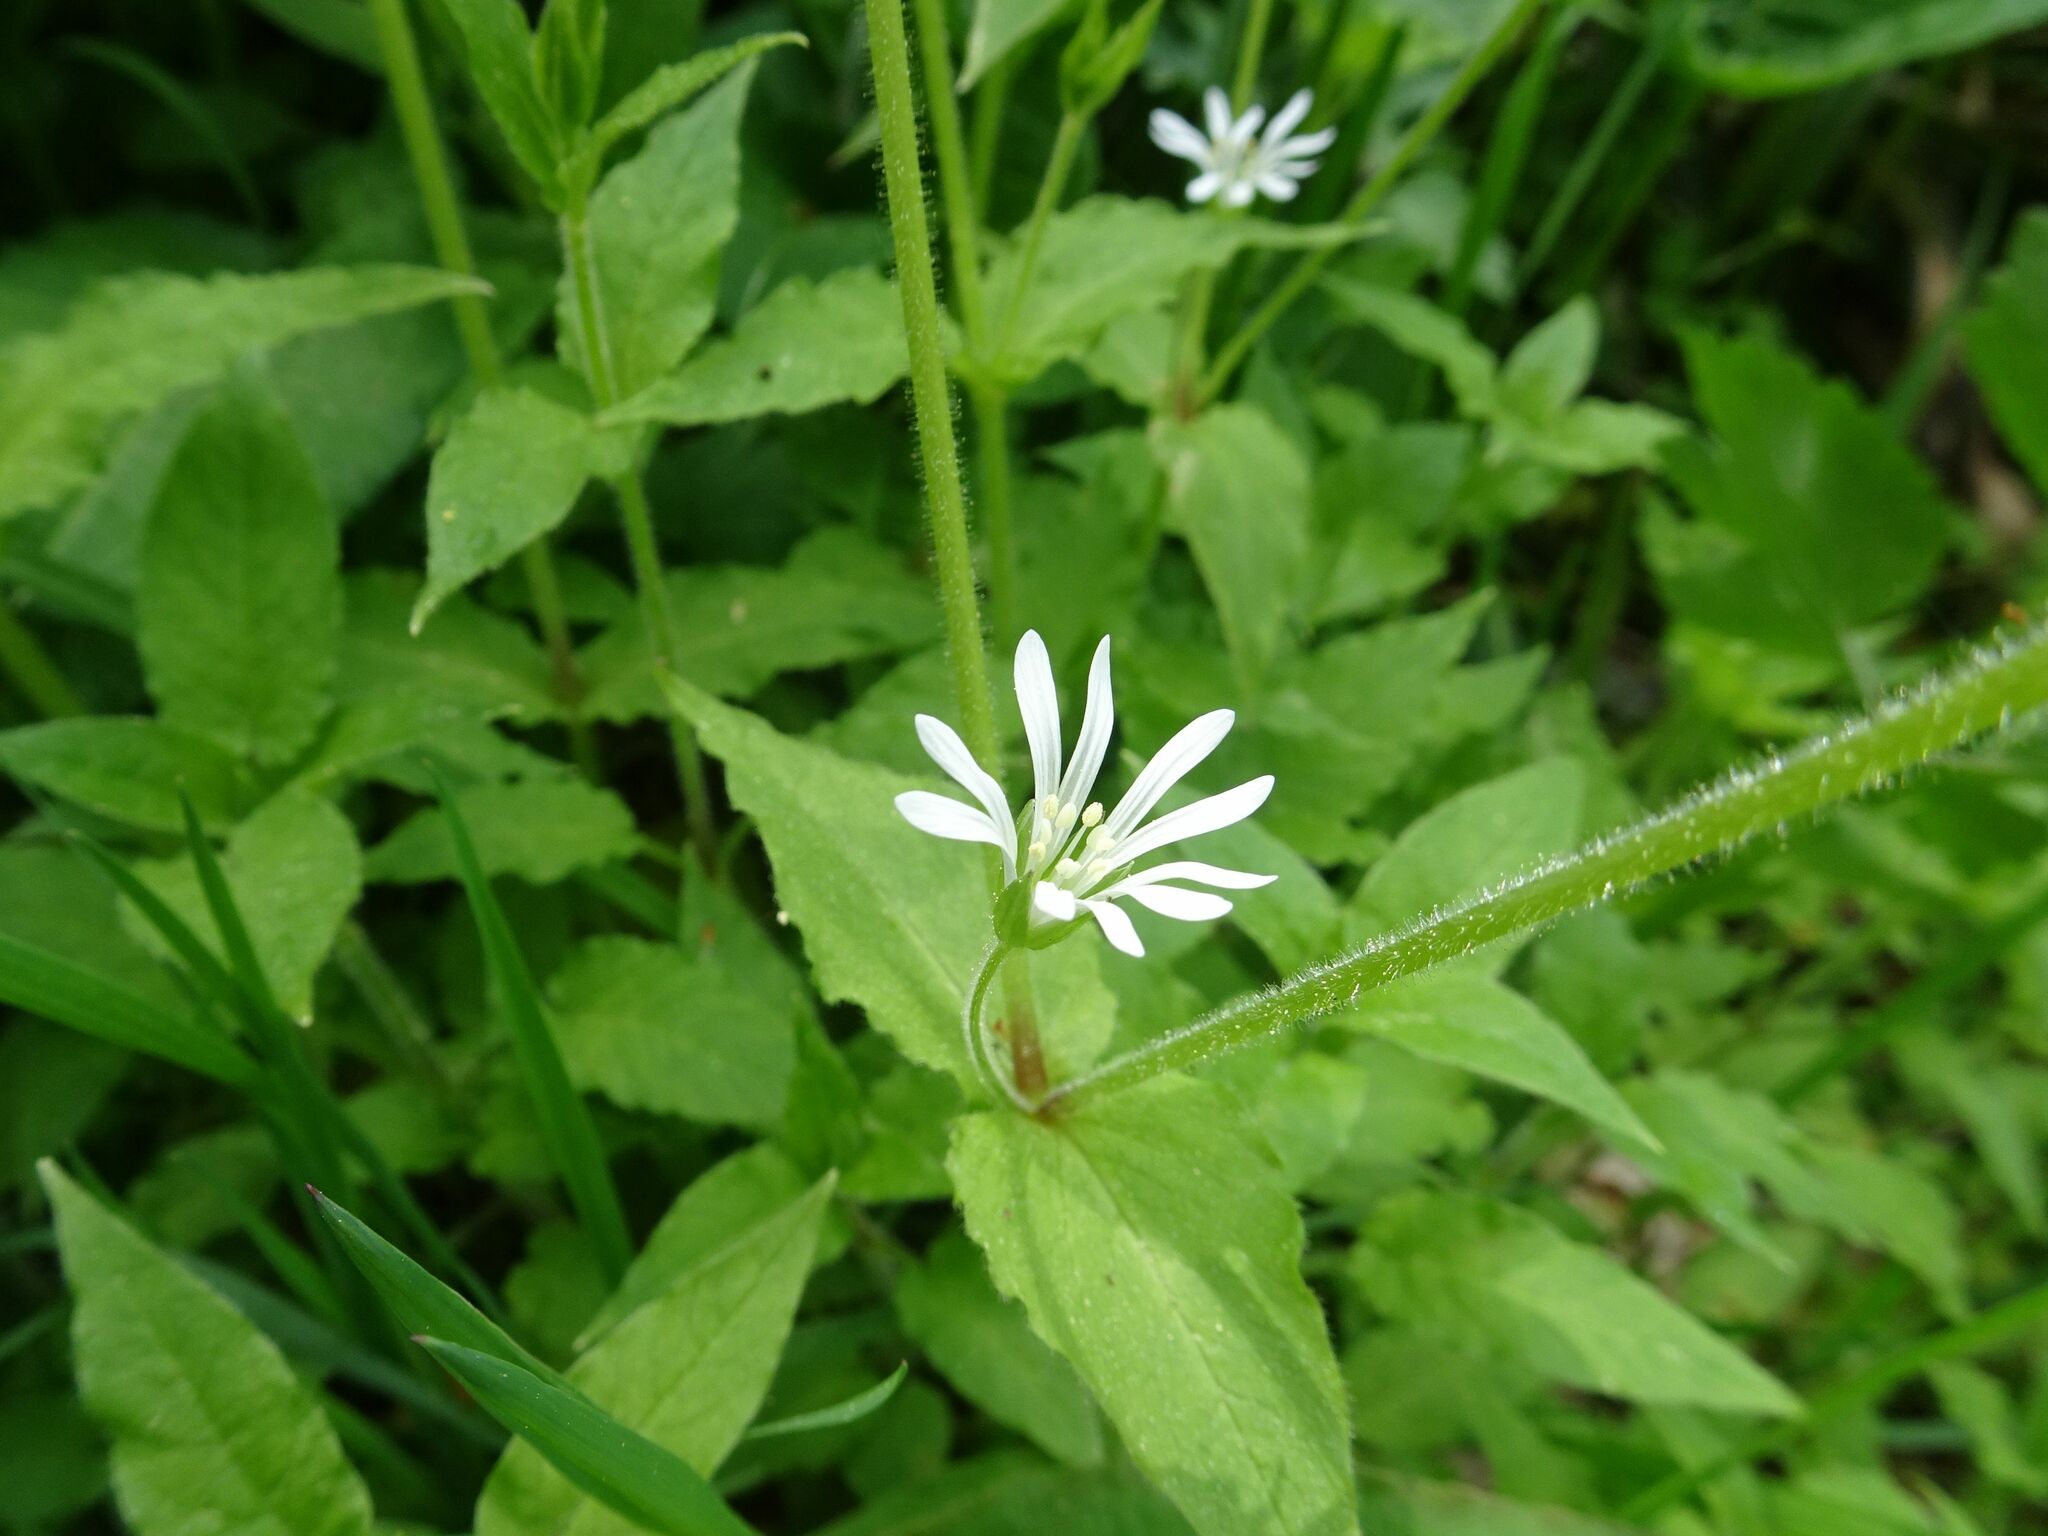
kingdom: Plantae
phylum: Tracheophyta
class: Magnoliopsida
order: Caryophyllales
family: Caryophyllaceae
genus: Stellaria
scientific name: Stellaria nemorum
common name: Wood stitchwort
